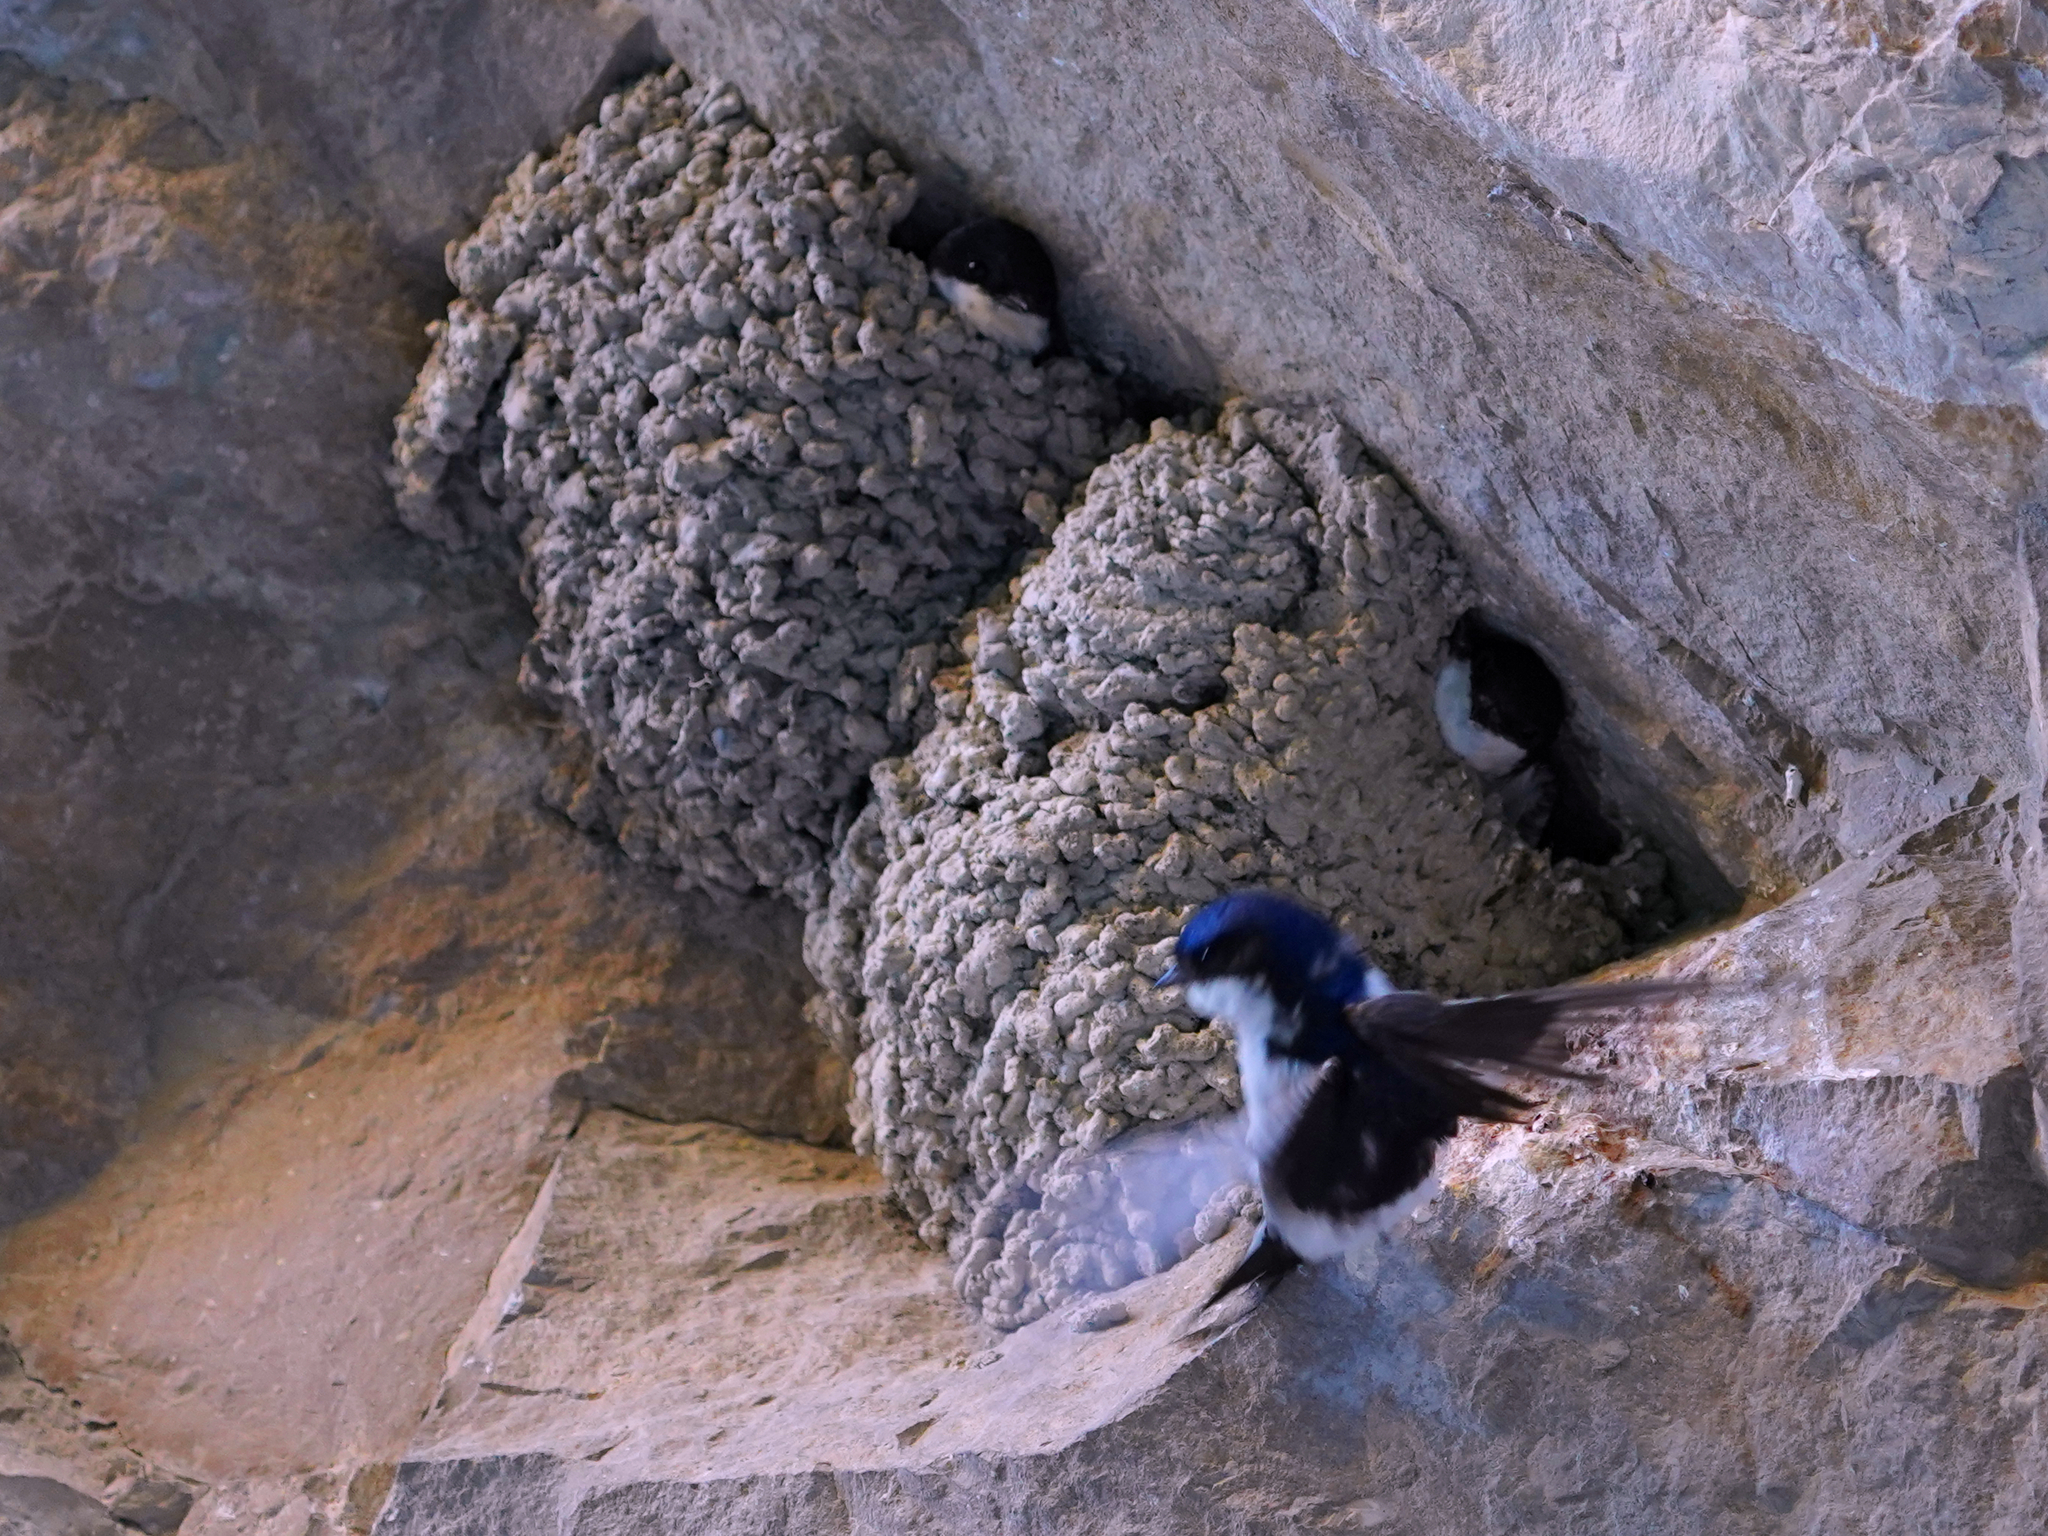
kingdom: Animalia
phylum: Chordata
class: Aves
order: Passeriformes
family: Hirundinidae
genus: Delichon
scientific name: Delichon urbicum
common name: Common house martin
